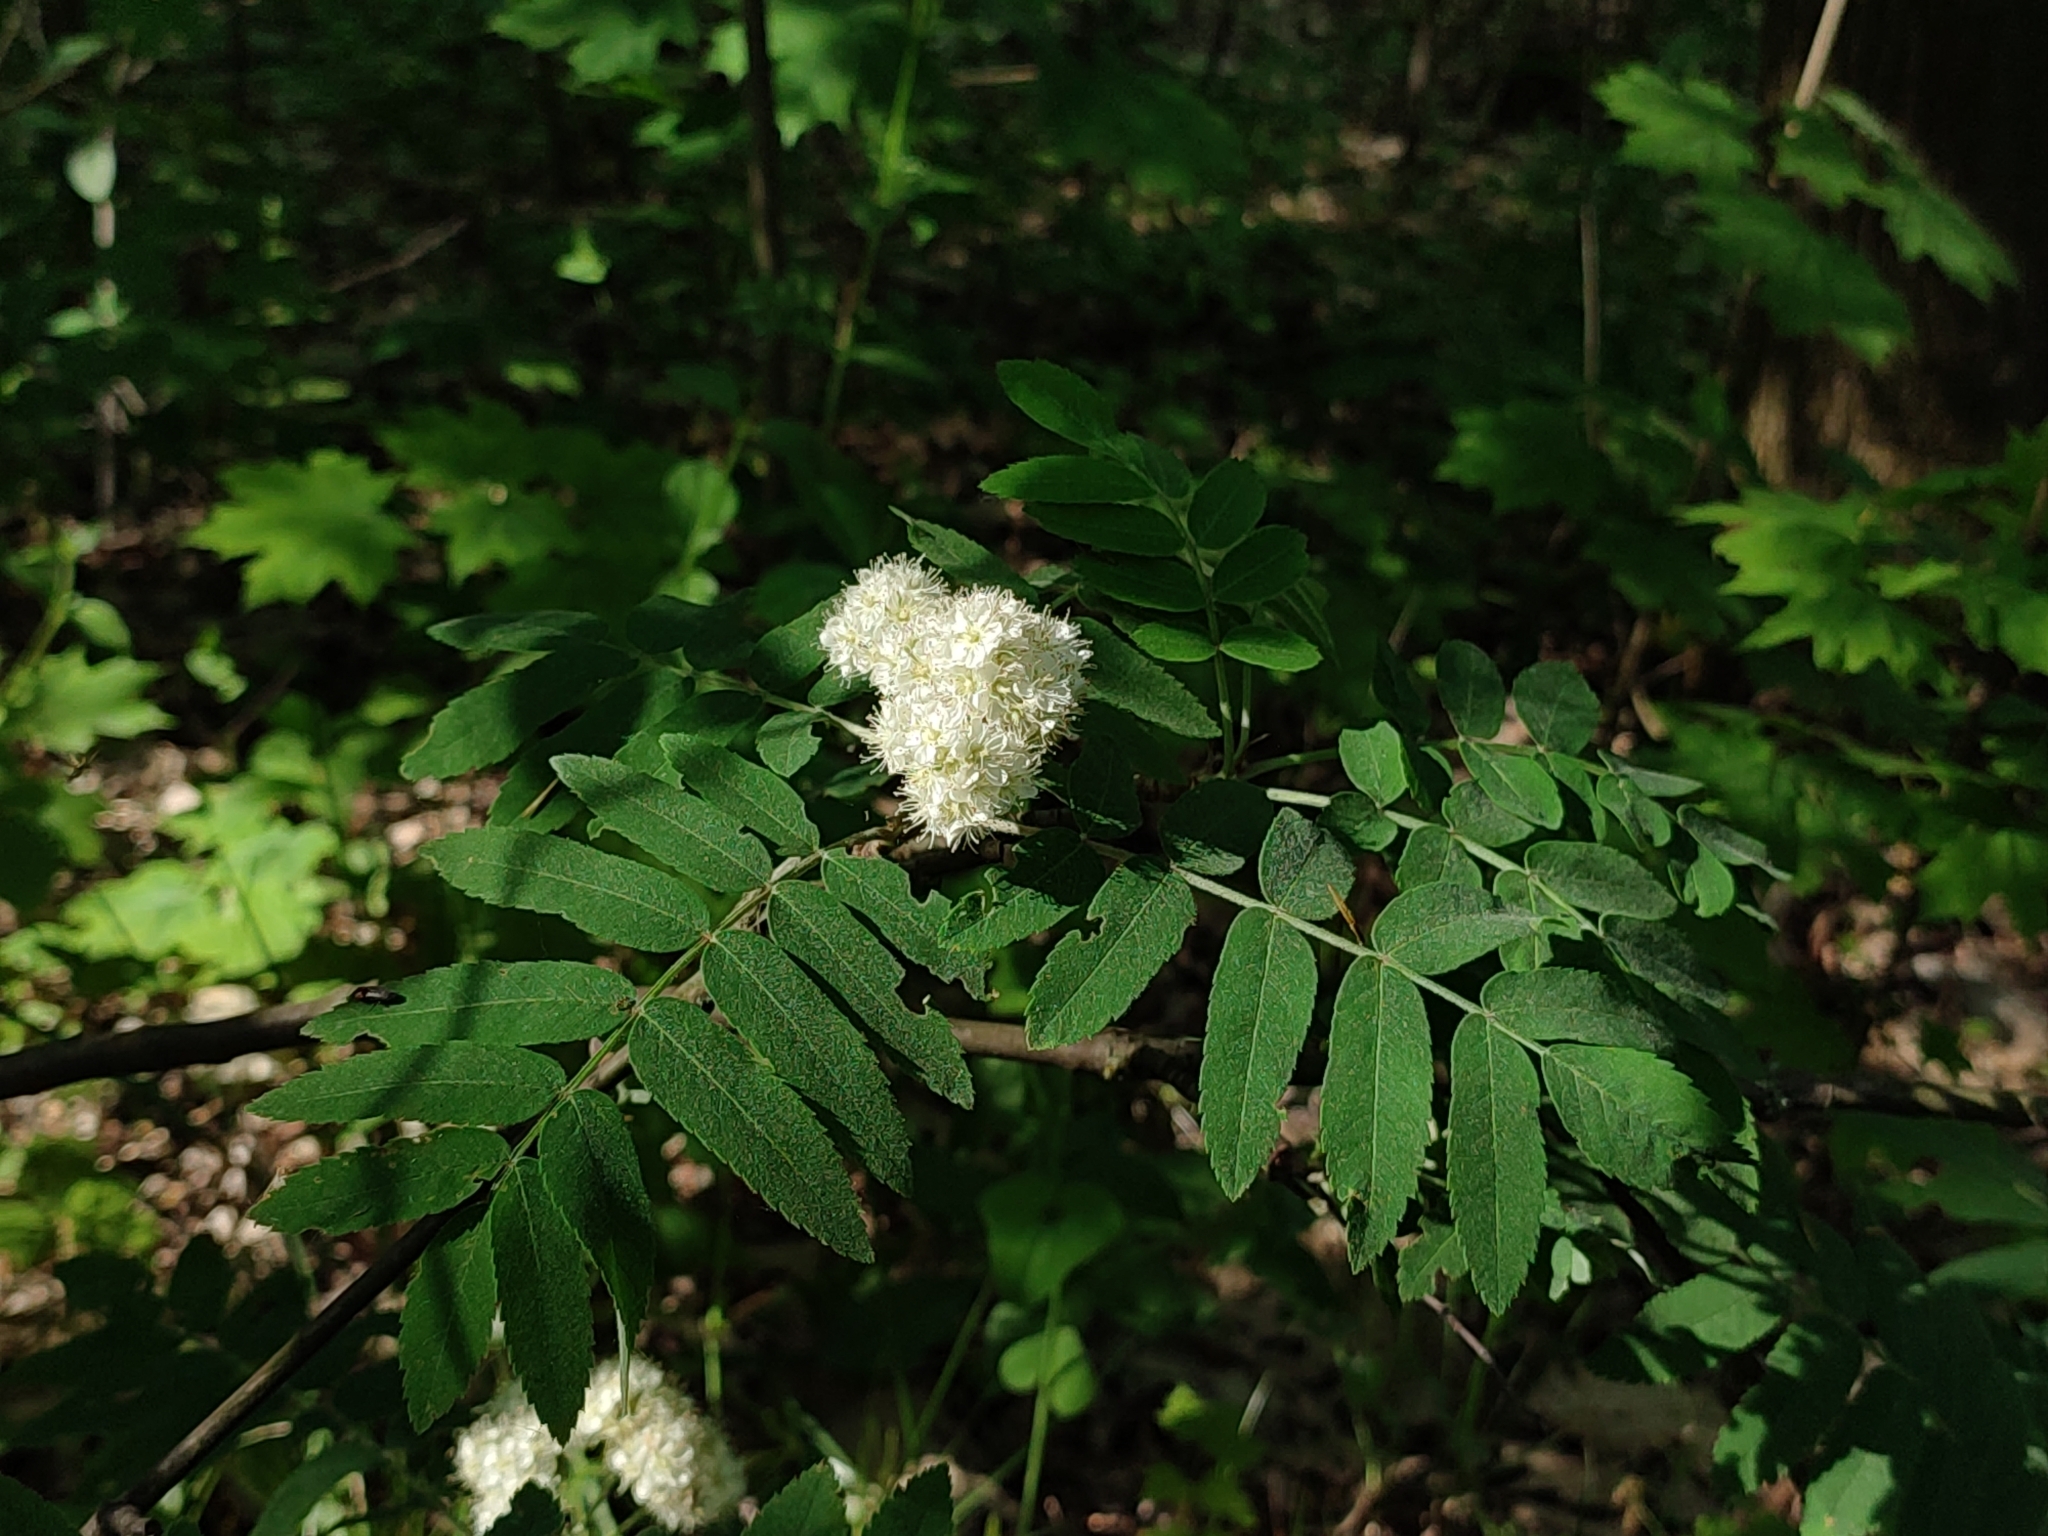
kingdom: Plantae
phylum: Tracheophyta
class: Magnoliopsida
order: Rosales
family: Rosaceae
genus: Sorbus
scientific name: Sorbus aucuparia
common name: Rowan
